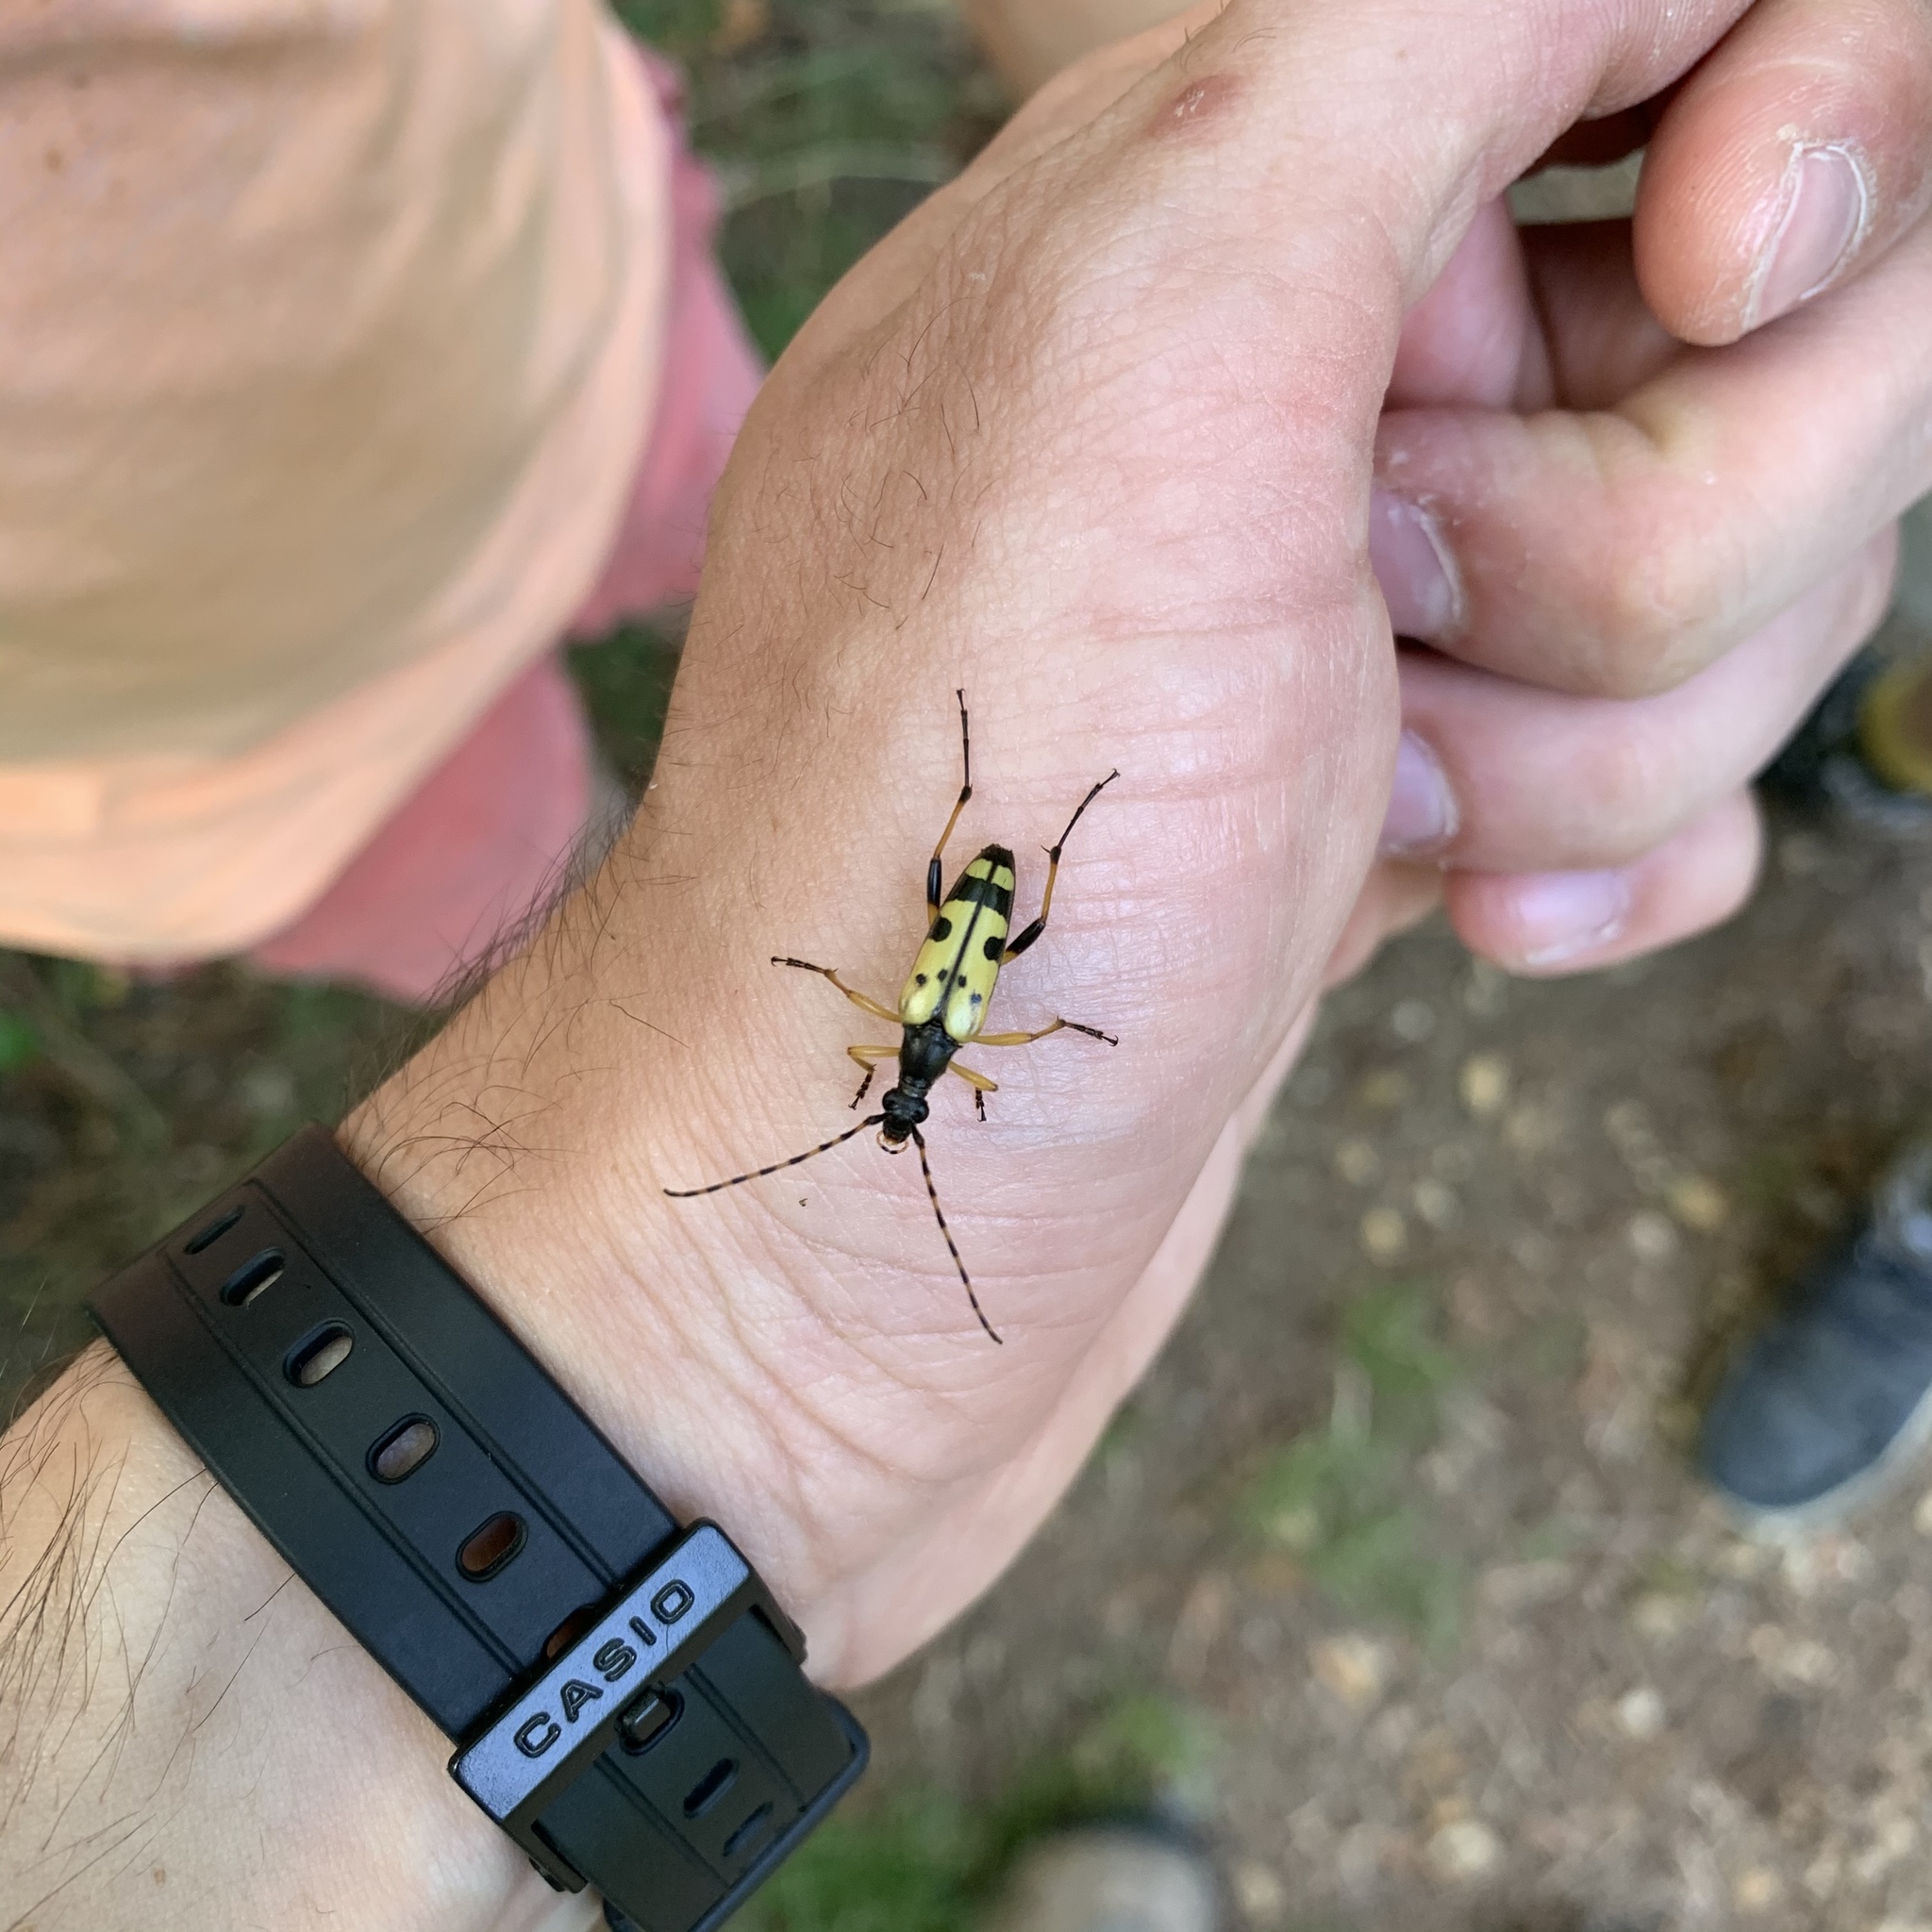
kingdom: Animalia
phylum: Arthropoda
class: Insecta
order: Coleoptera
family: Cerambycidae
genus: Rutpela
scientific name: Rutpela maculata
